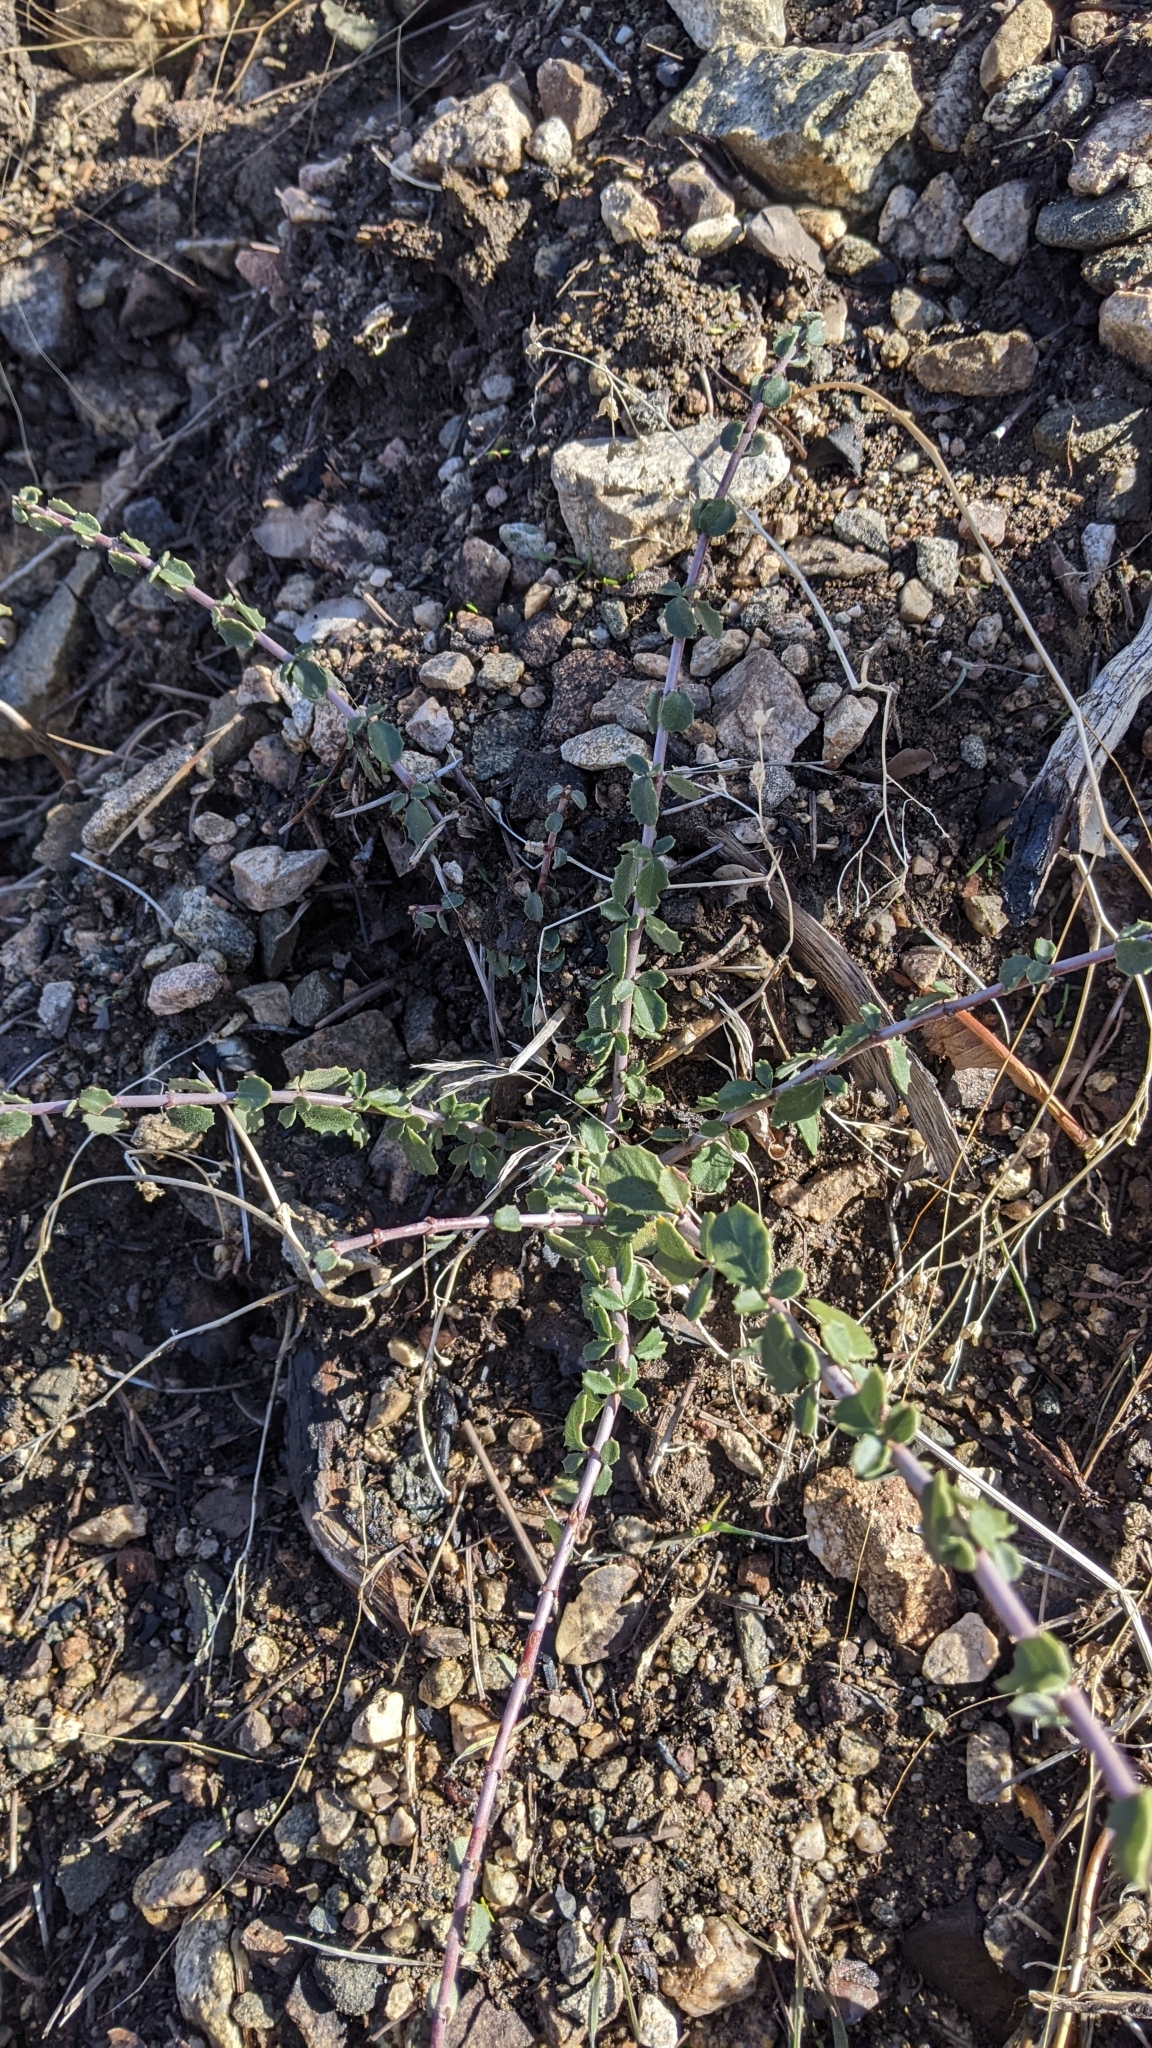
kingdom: Plantae
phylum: Tracheophyta
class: Magnoliopsida
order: Rosales
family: Rhamnaceae
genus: Ceanothus
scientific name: Ceanothus pauciflorus
